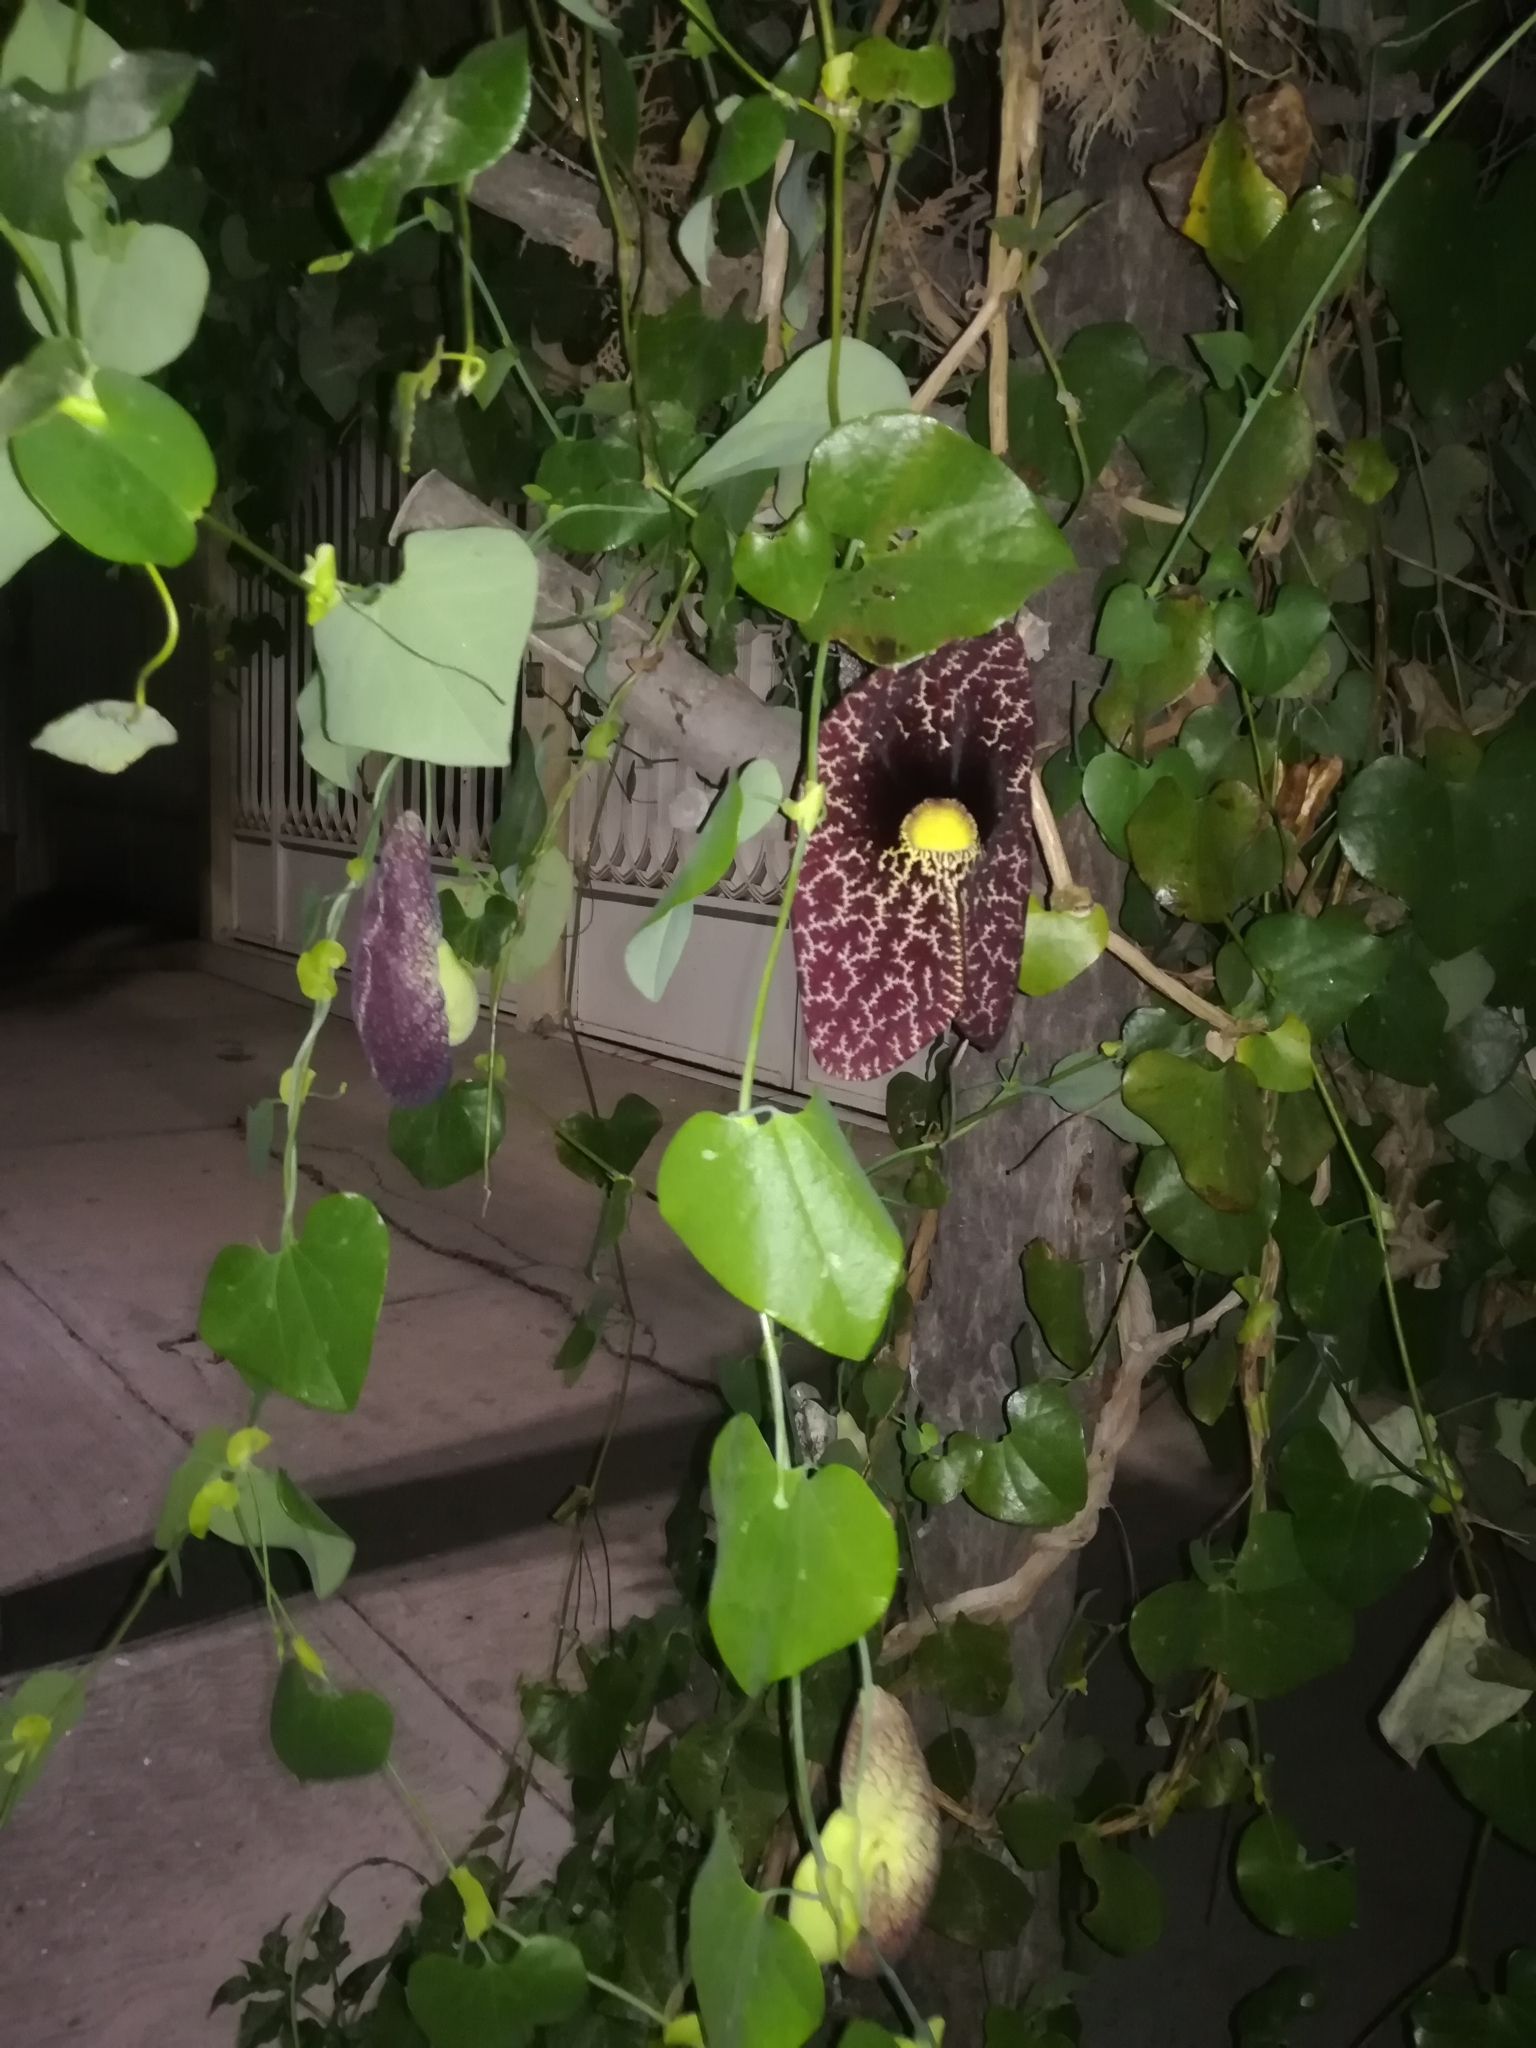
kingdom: Plantae
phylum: Tracheophyta
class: Magnoliopsida
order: Piperales
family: Aristolochiaceae
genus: Aristolochia
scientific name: Aristolochia littoralis
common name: Duck
